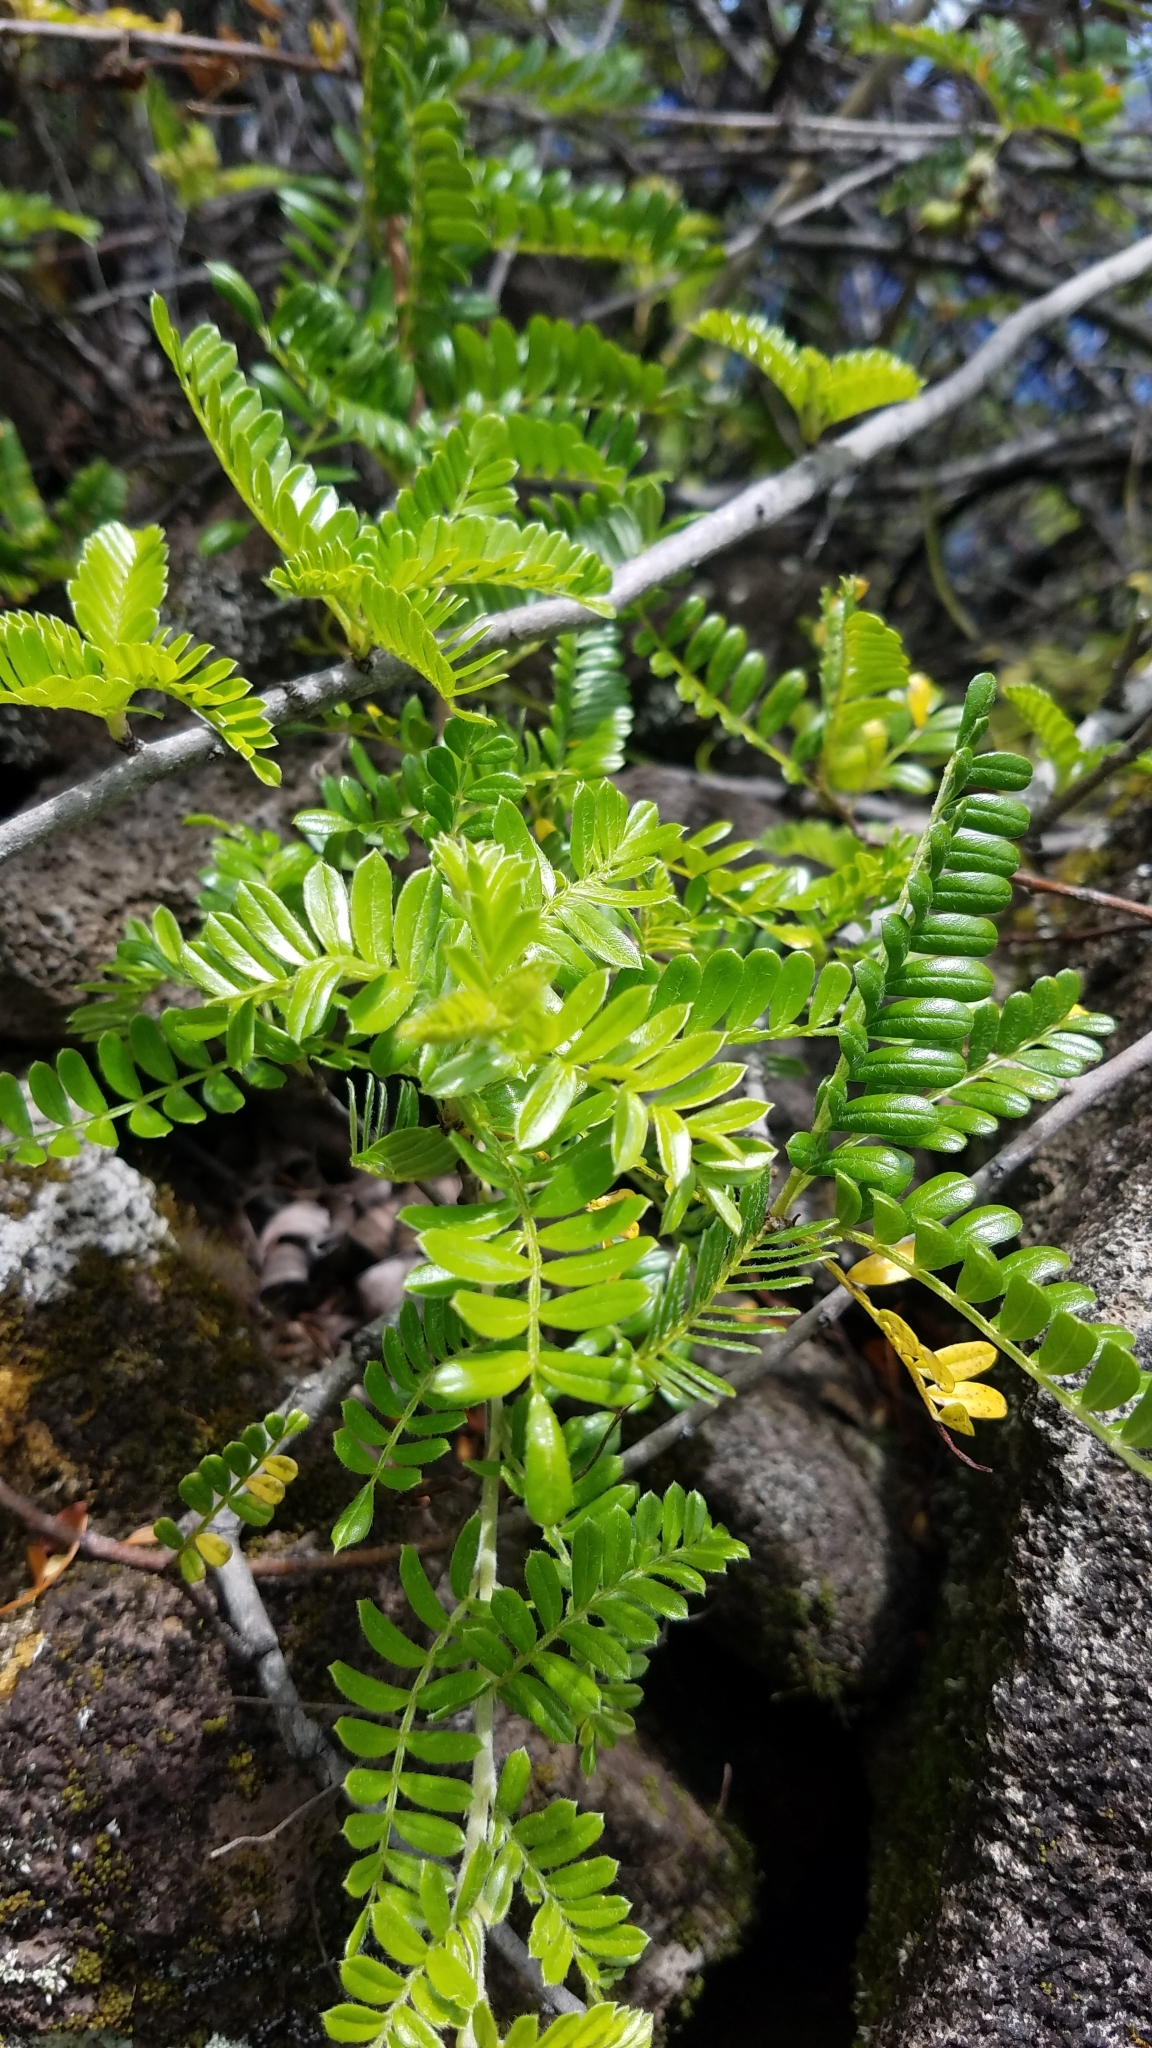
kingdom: Plantae
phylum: Tracheophyta
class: Magnoliopsida
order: Rosales
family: Rosaceae
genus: Osteomeles
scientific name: Osteomeles anthyllidifolia
